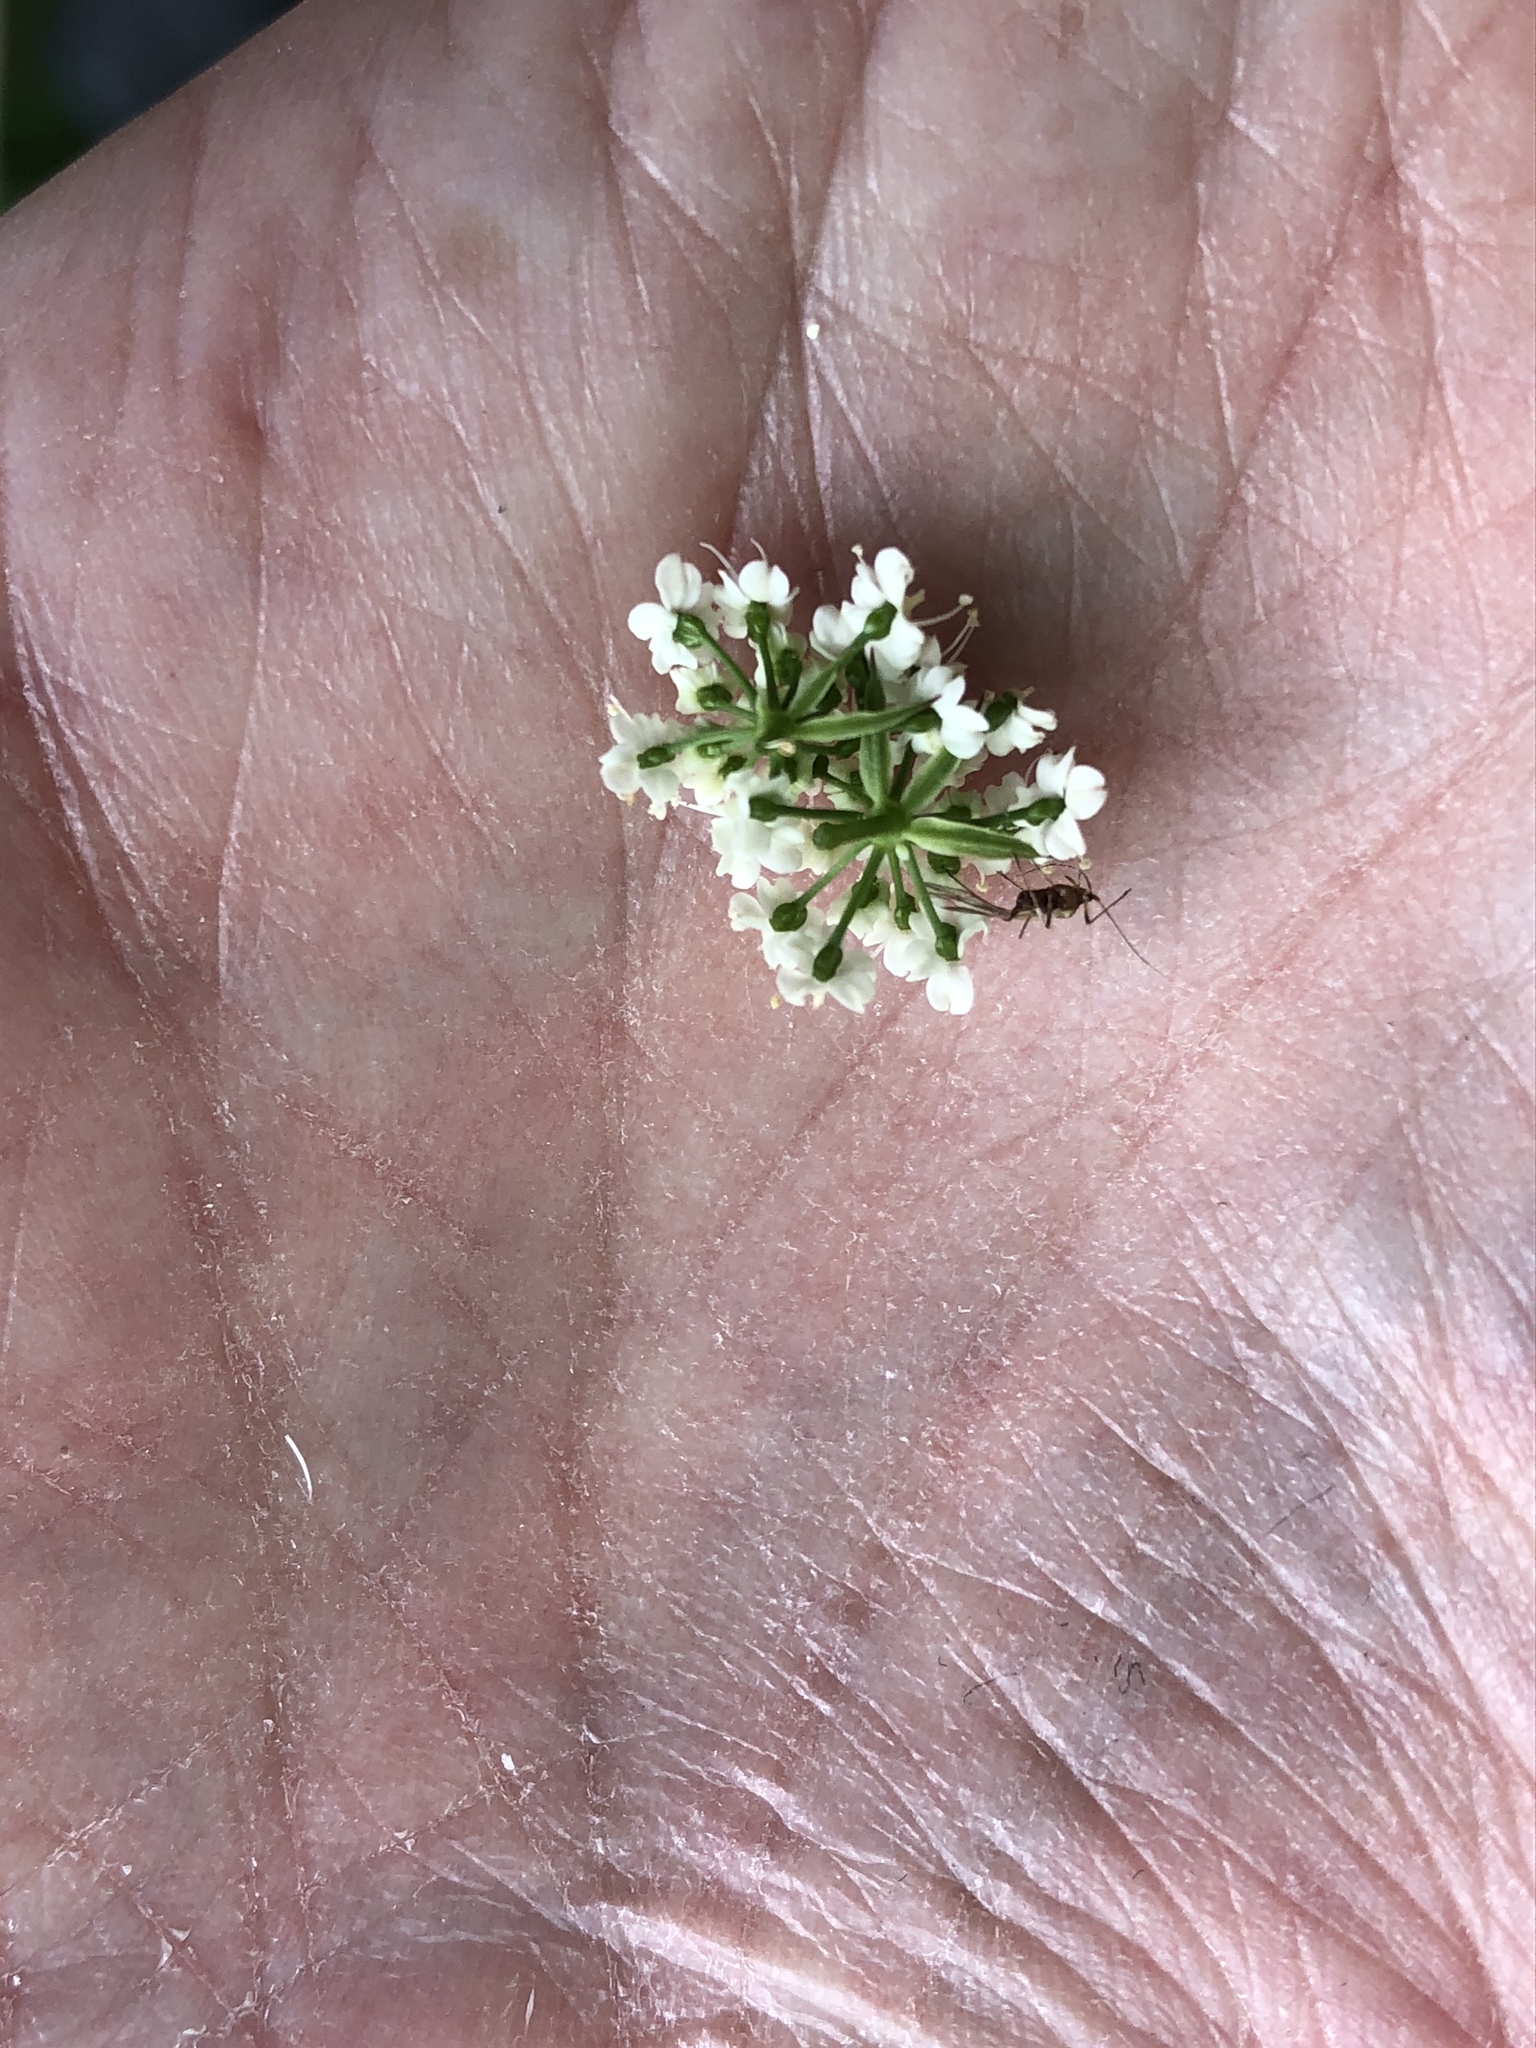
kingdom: Plantae
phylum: Tracheophyta
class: Magnoliopsida
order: Apiales
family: Apiaceae
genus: Conopodium
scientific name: Conopodium majus
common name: Pignut
